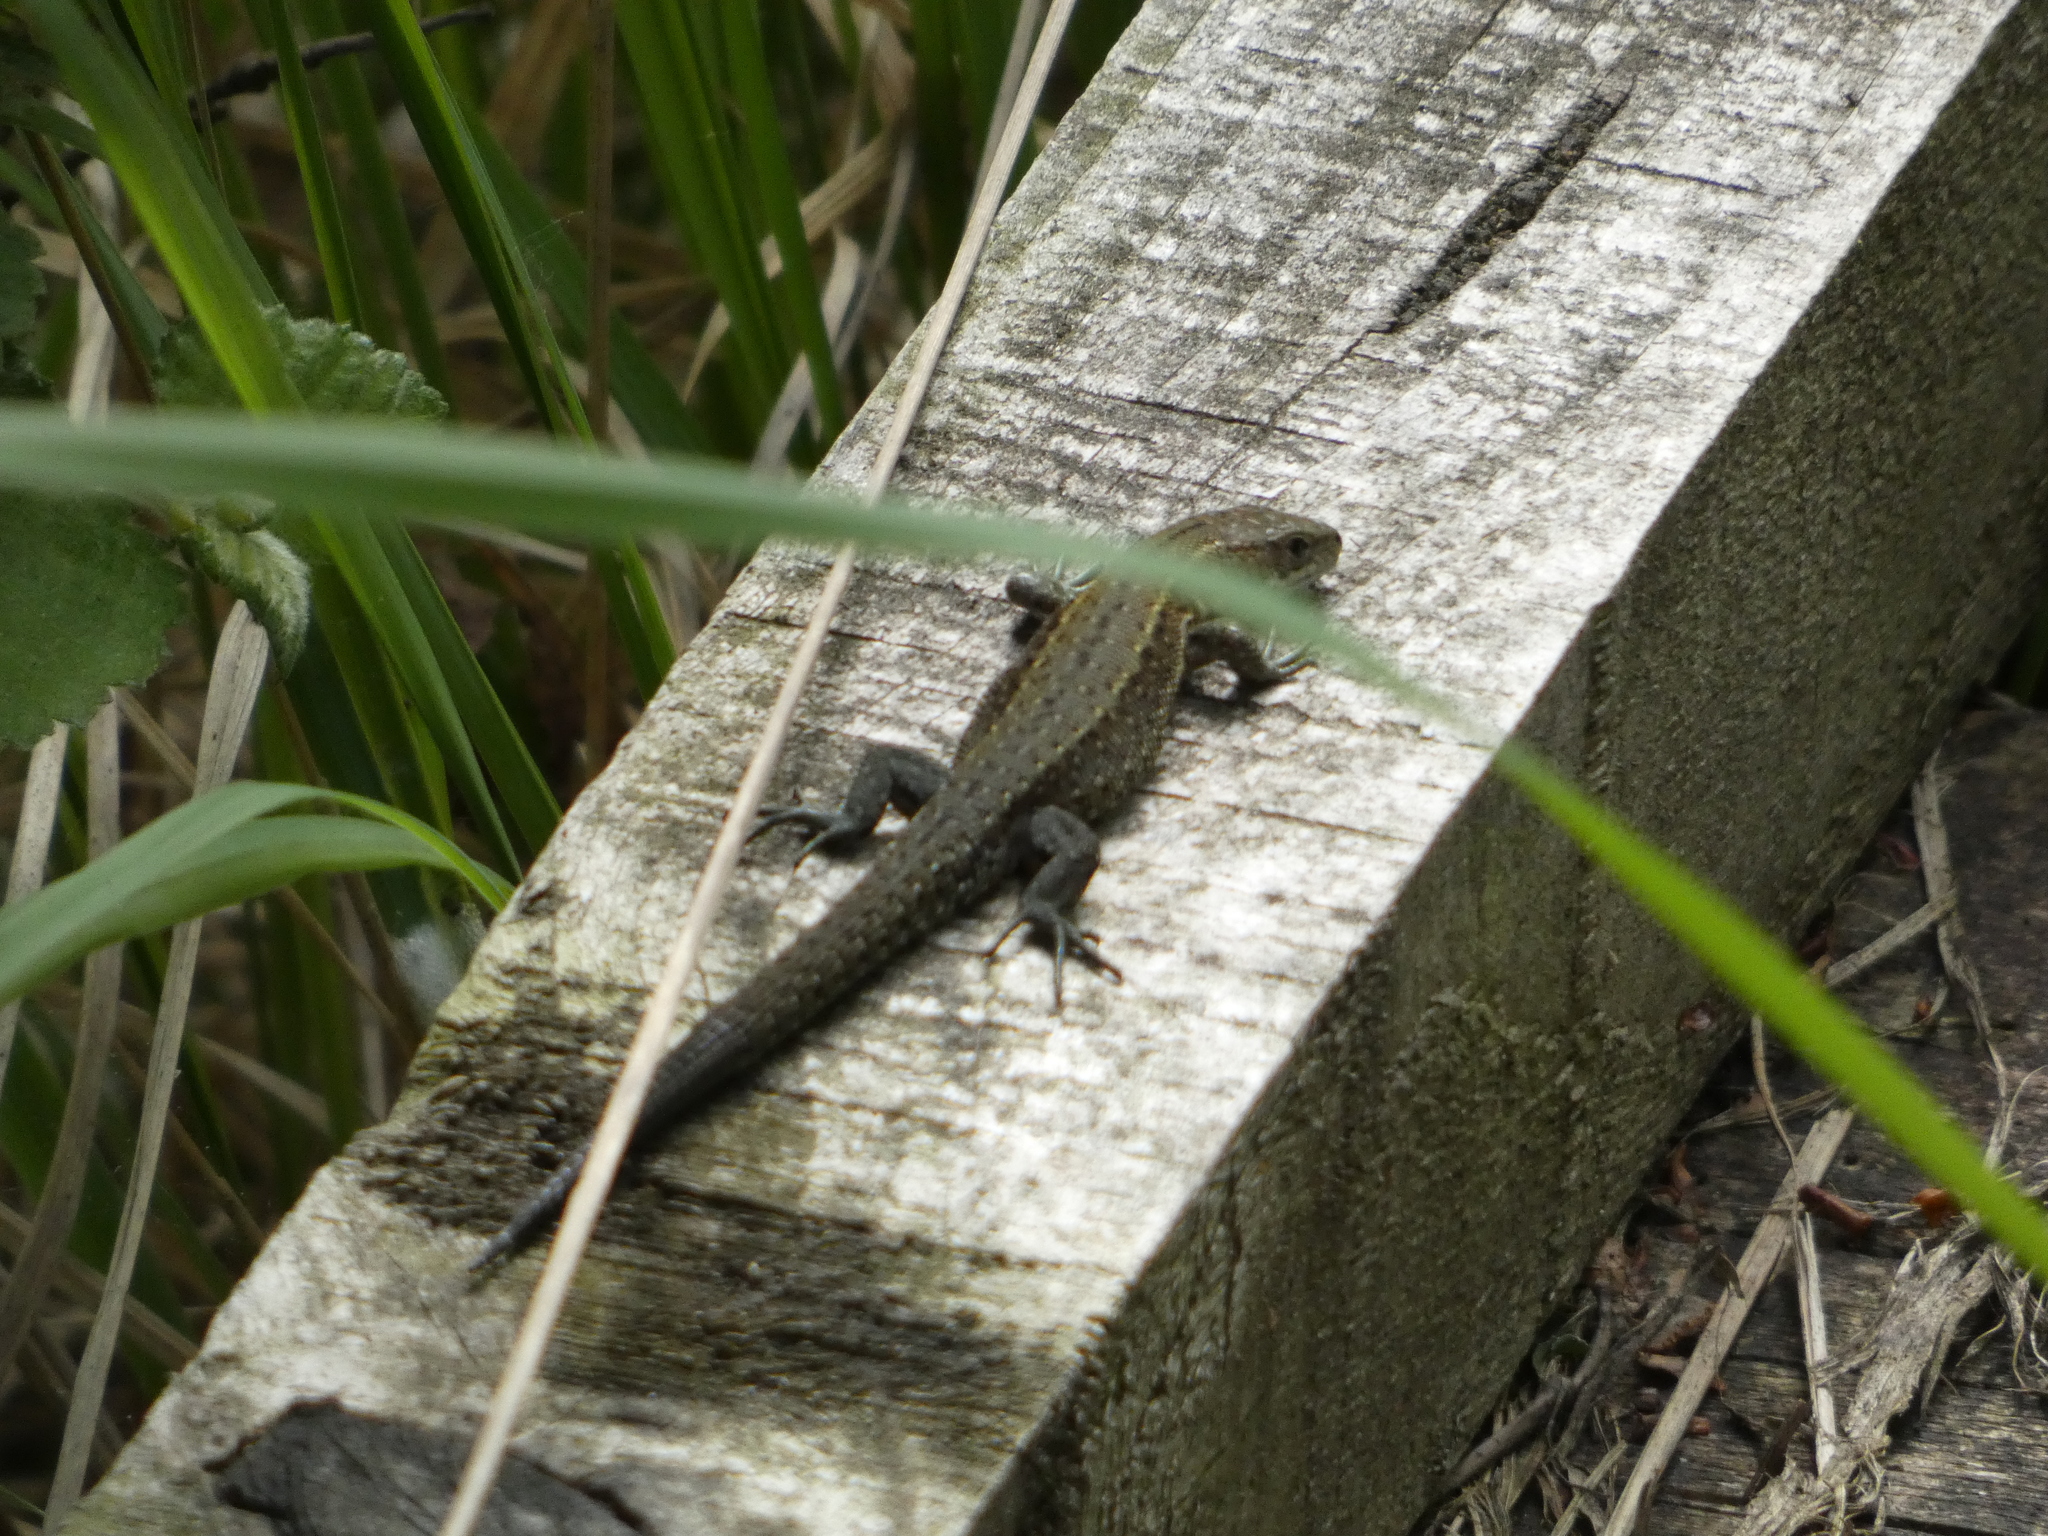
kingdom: Animalia
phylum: Chordata
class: Squamata
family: Lacertidae
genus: Zootoca
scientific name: Zootoca vivipara
